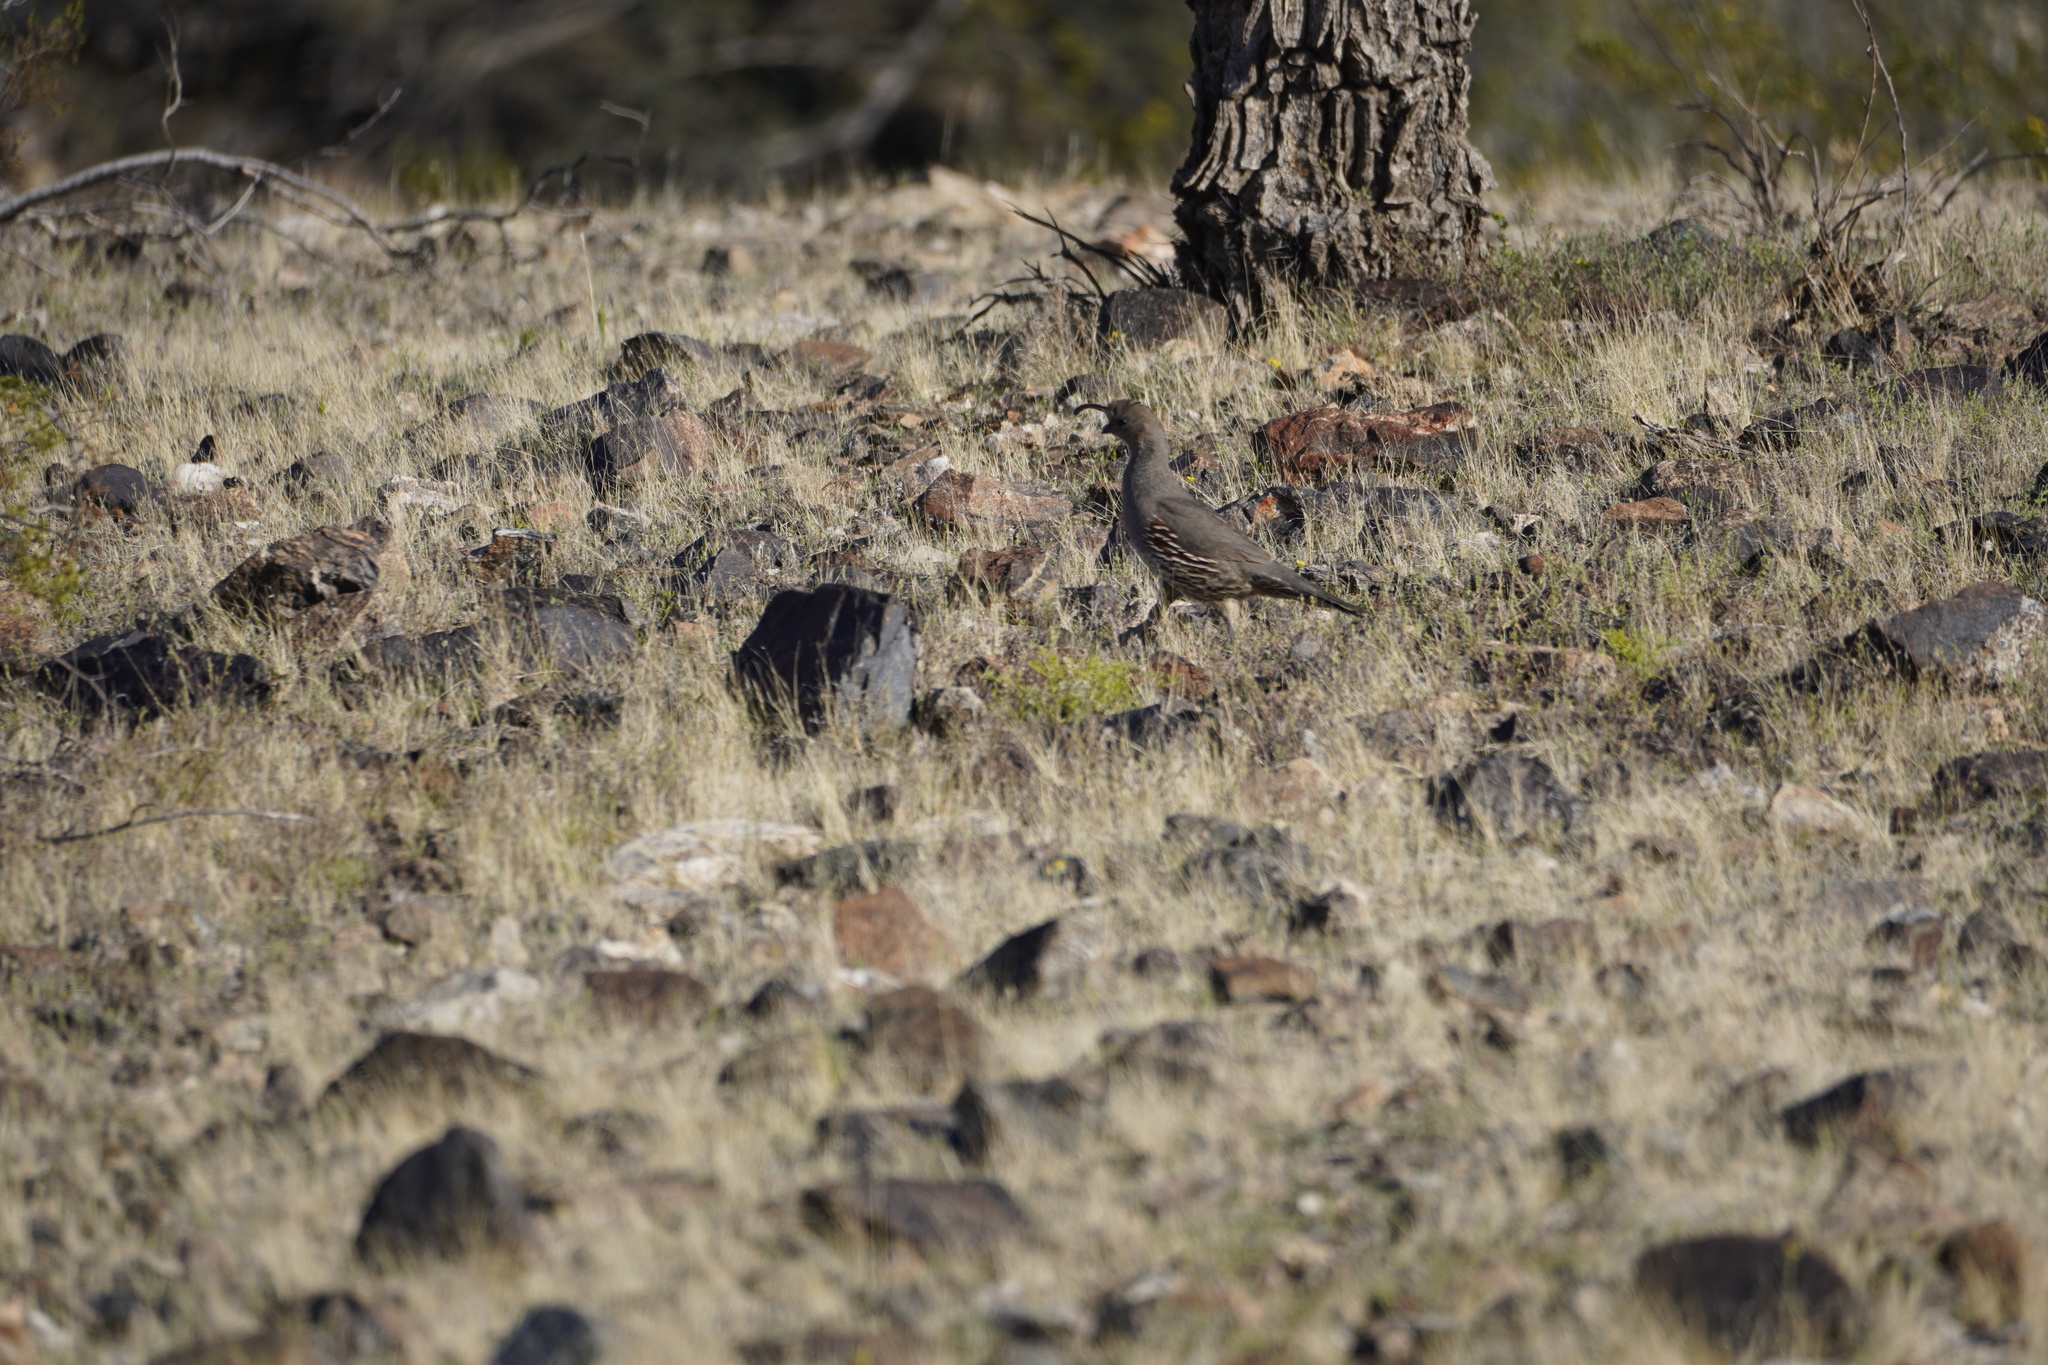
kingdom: Animalia
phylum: Chordata
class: Aves
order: Galliformes
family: Odontophoridae
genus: Callipepla
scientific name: Callipepla gambelii
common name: Gambel's quail
